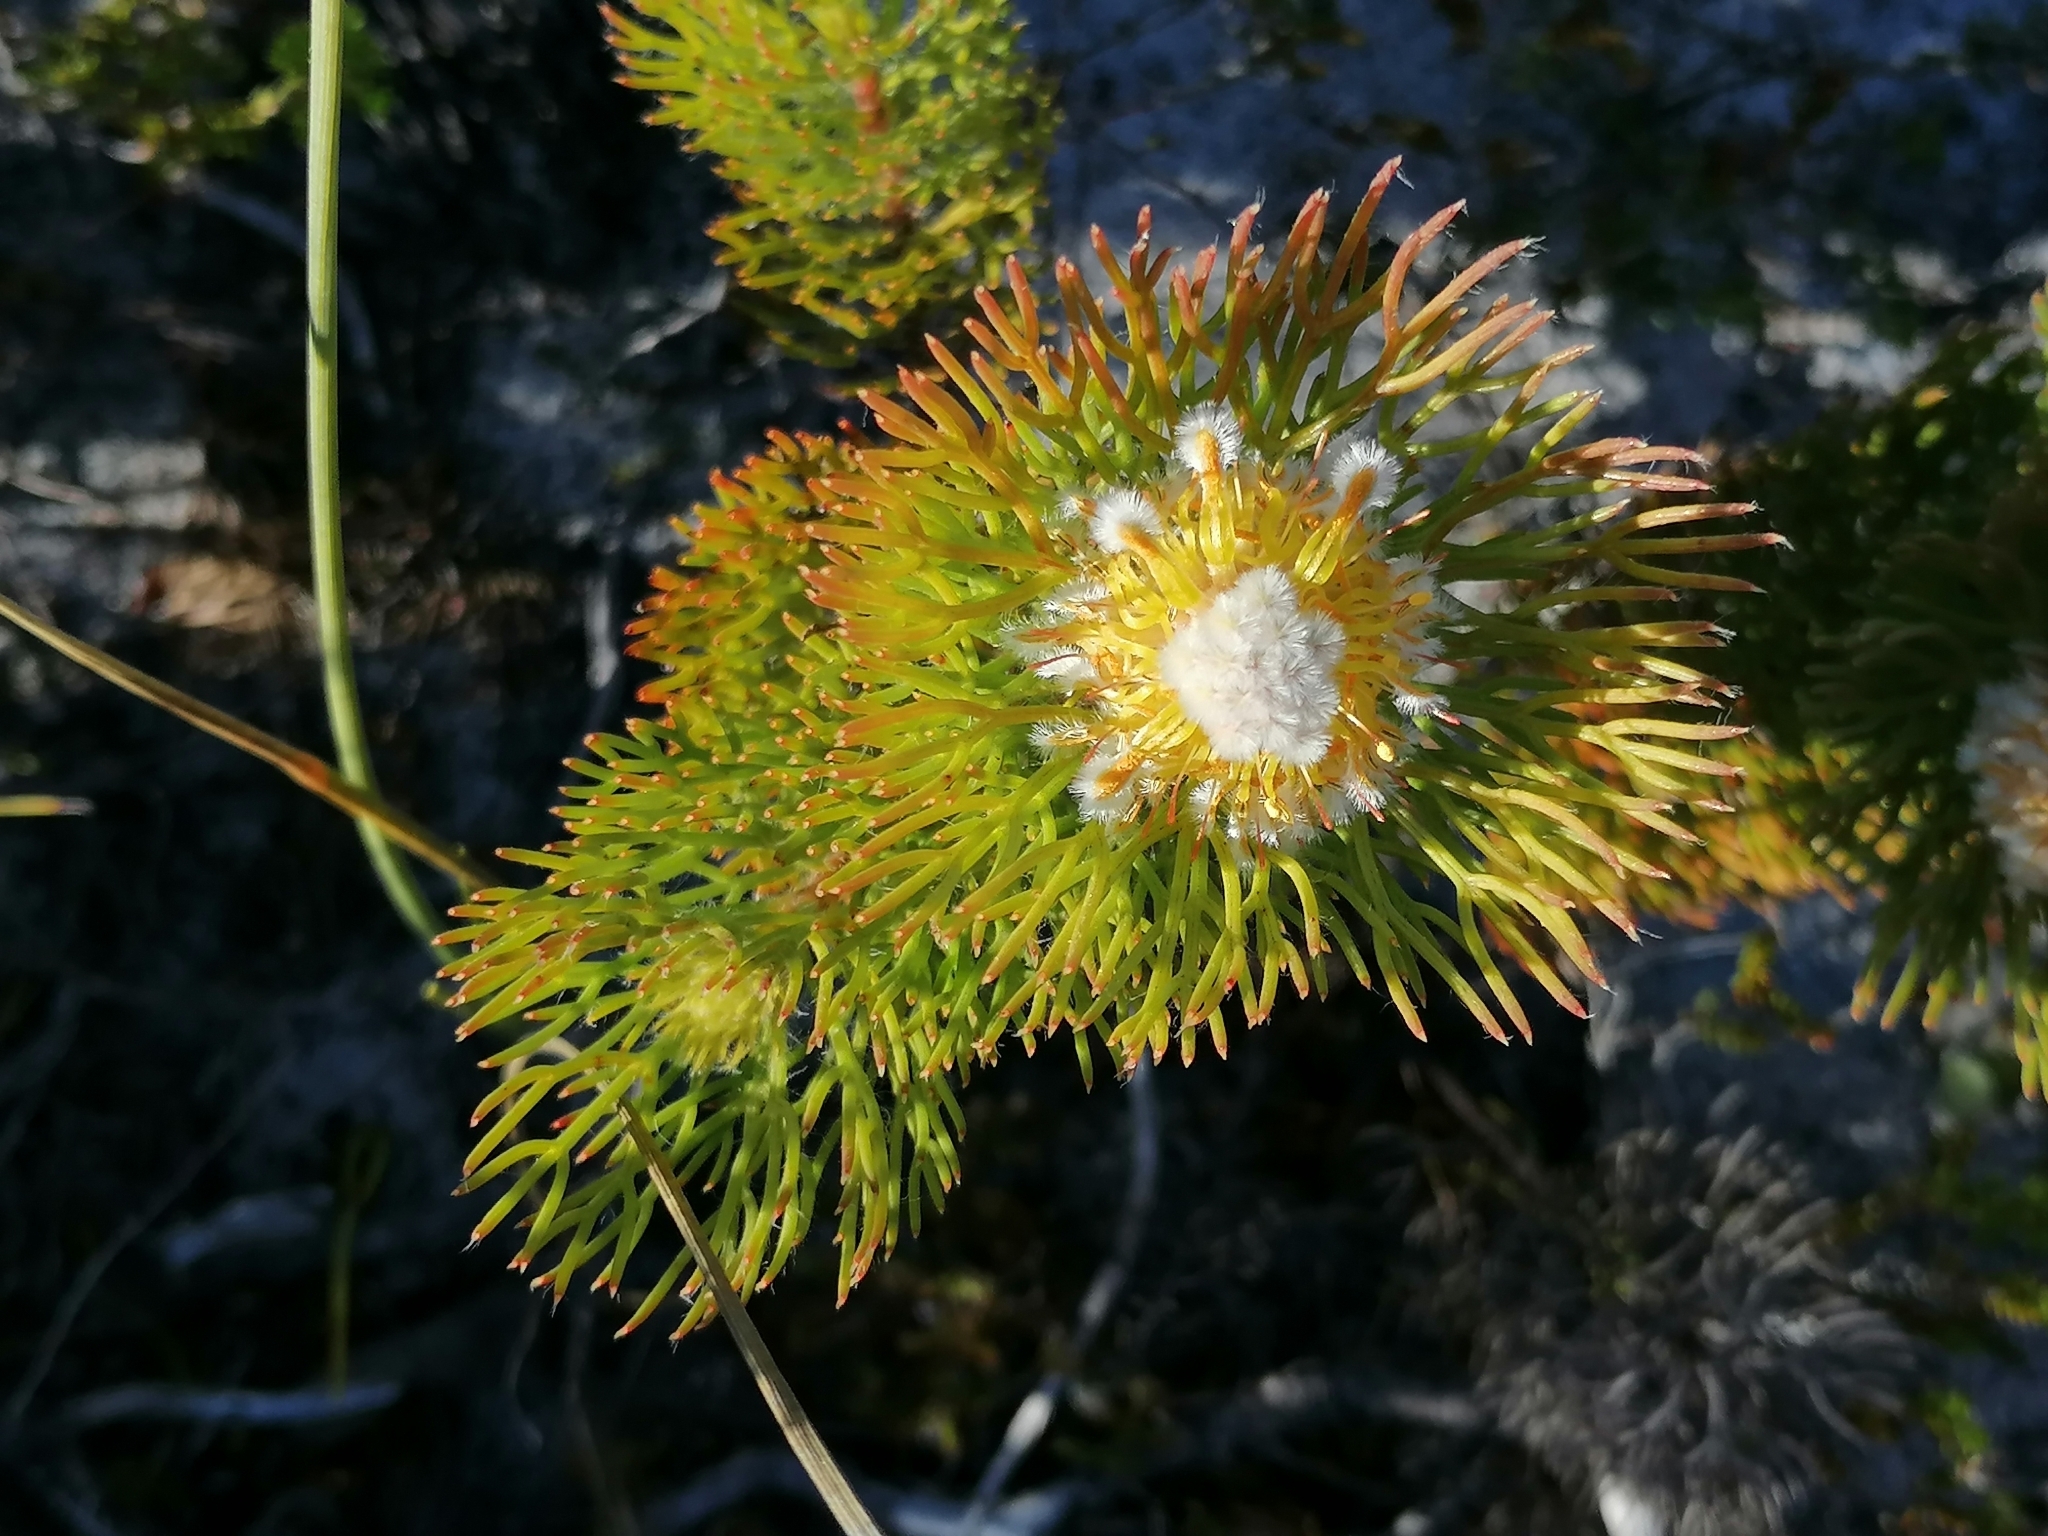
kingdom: Plantae
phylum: Tracheophyta
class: Magnoliopsida
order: Proteales
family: Proteaceae
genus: Serruria
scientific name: Serruria villosa
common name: Golden spiderhead
